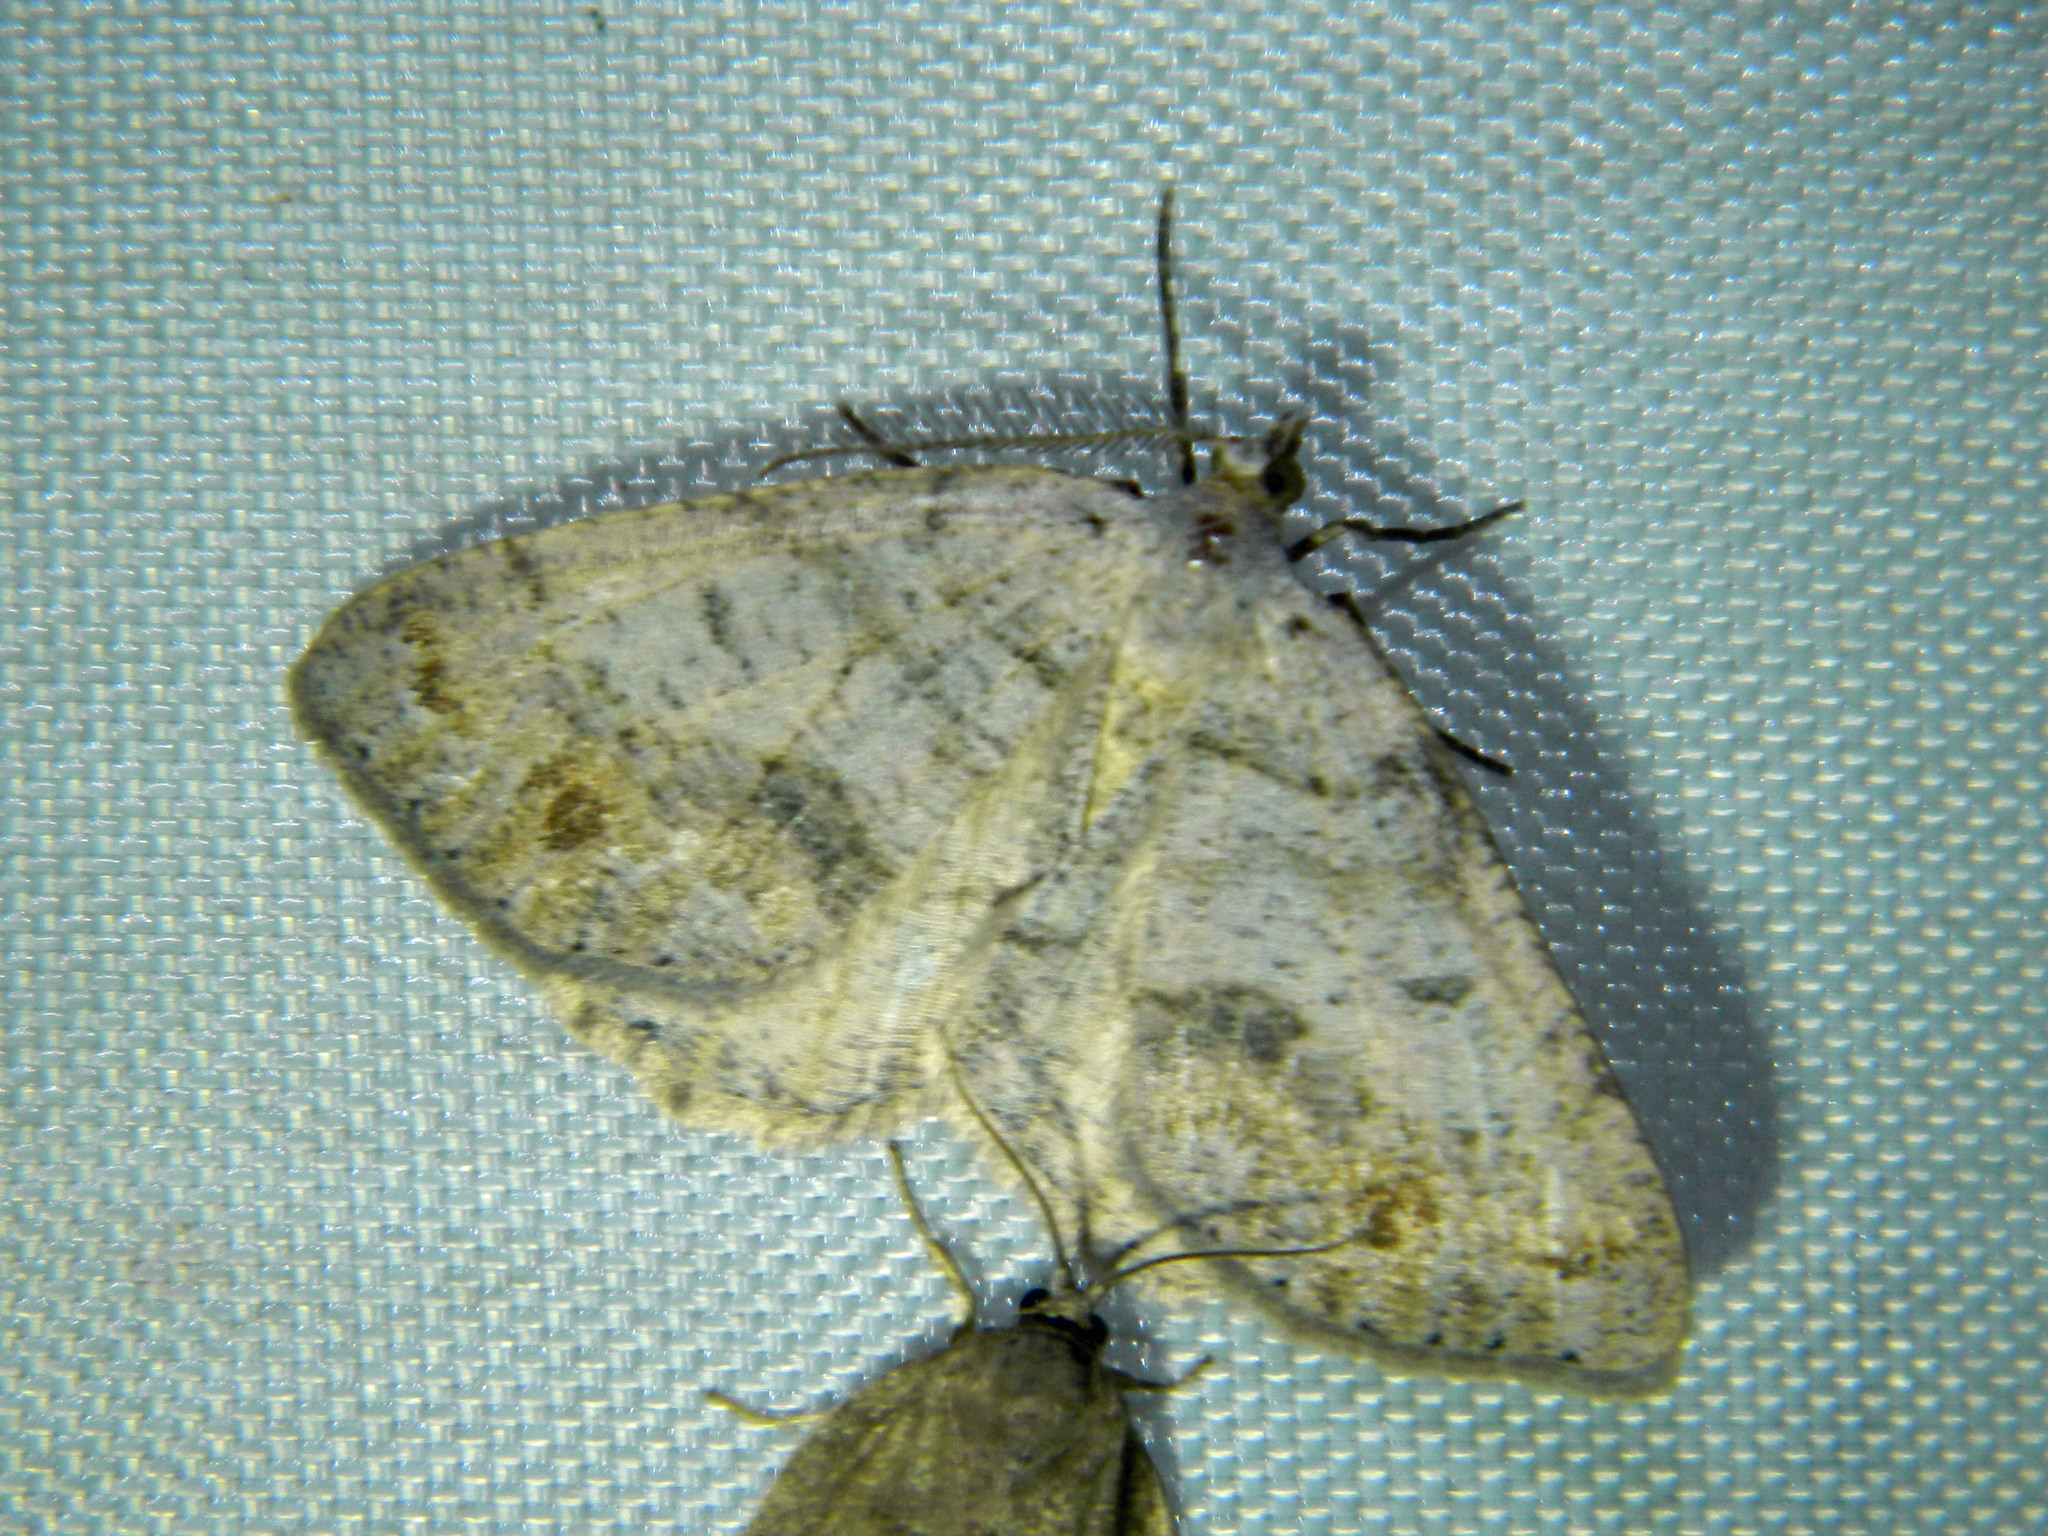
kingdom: Animalia
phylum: Arthropoda
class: Insecta
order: Lepidoptera
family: Geometridae
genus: Macaria
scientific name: Macaria loricaria
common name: False bruce spanworm
